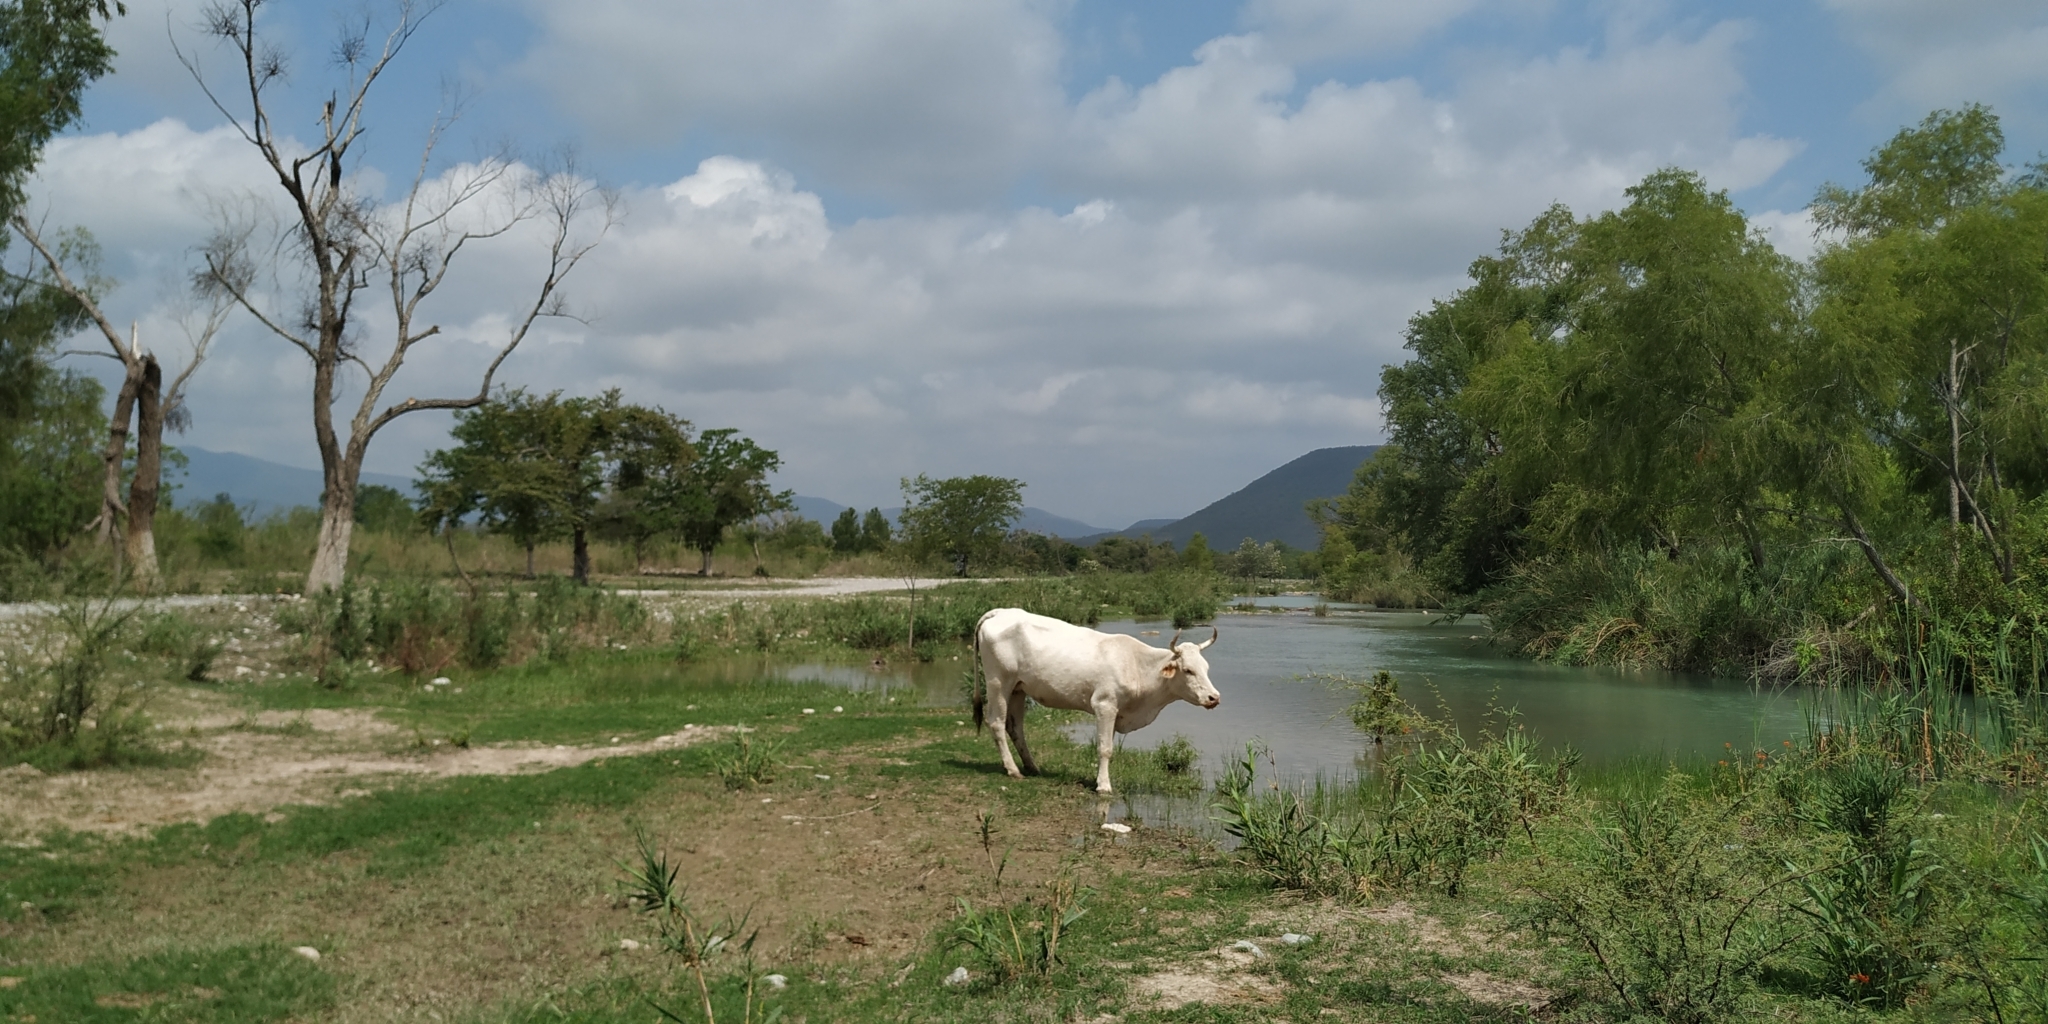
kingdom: Animalia
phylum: Chordata
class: Mammalia
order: Artiodactyla
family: Bovidae
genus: Bos
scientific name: Bos taurus
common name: Domesticated cattle
